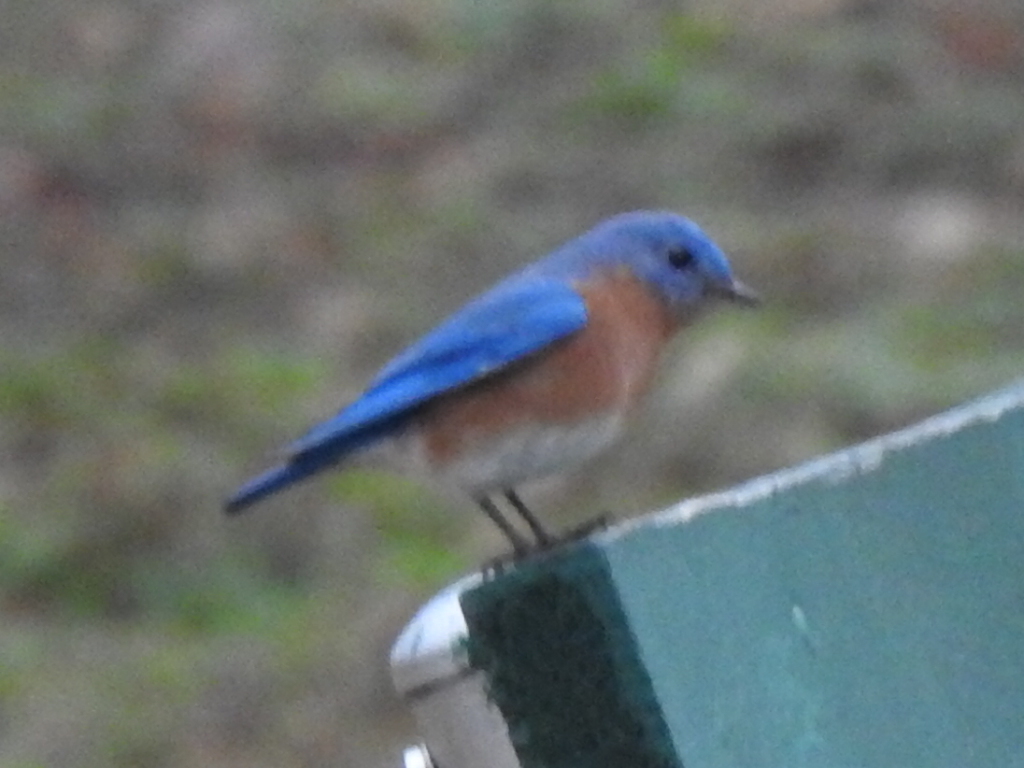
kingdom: Animalia
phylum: Chordata
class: Aves
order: Passeriformes
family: Turdidae
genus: Sialia
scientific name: Sialia sialis
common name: Eastern bluebird
